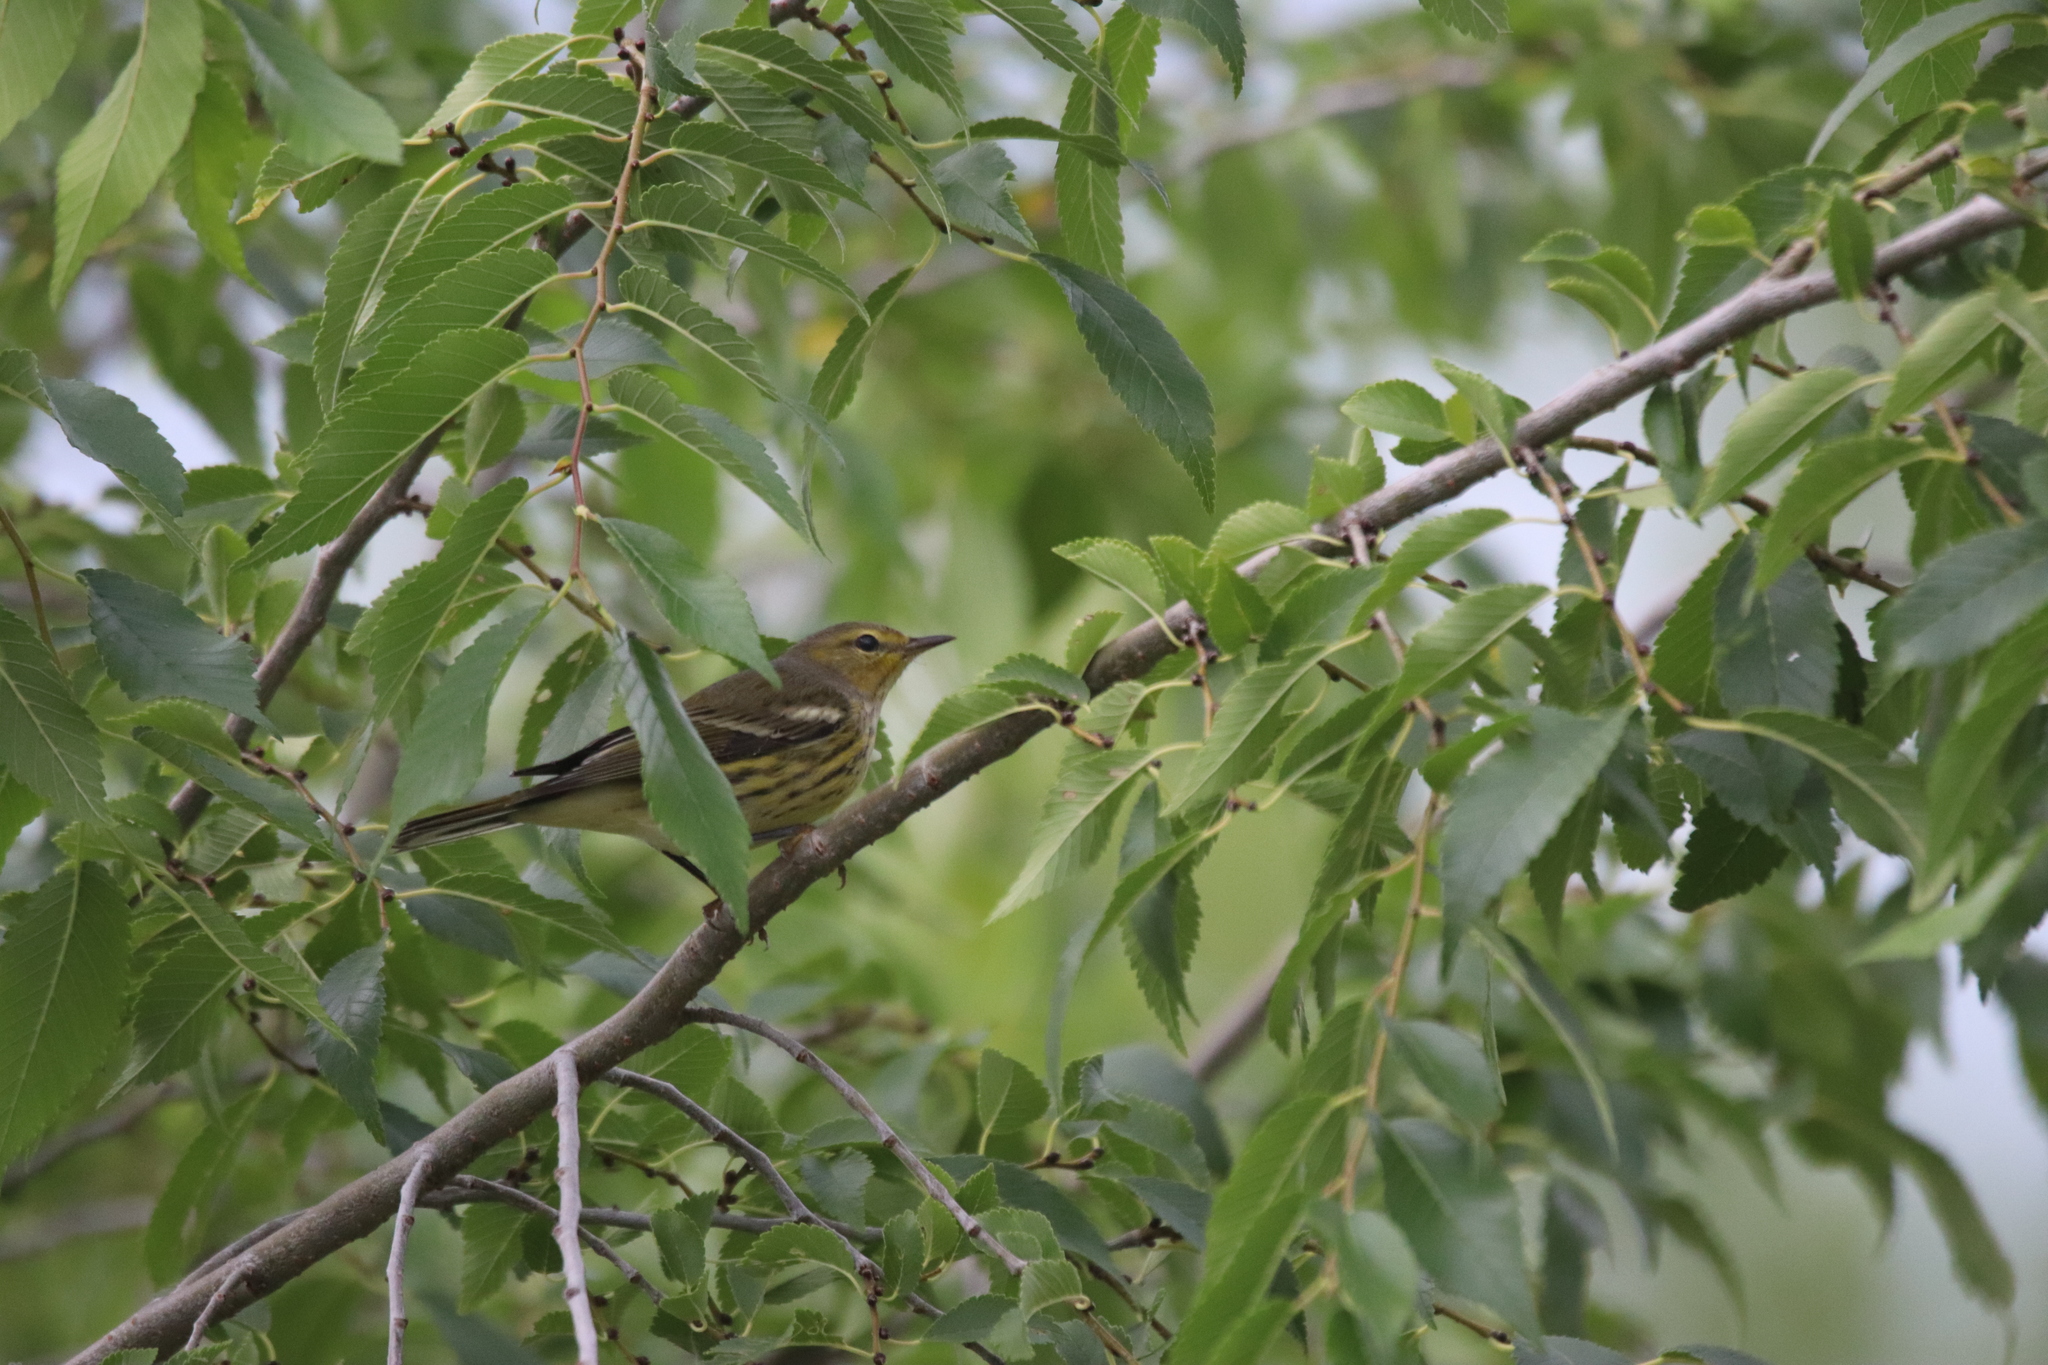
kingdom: Animalia
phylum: Chordata
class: Aves
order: Passeriformes
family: Parulidae
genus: Setophaga
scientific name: Setophaga tigrina
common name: Cape may warbler
